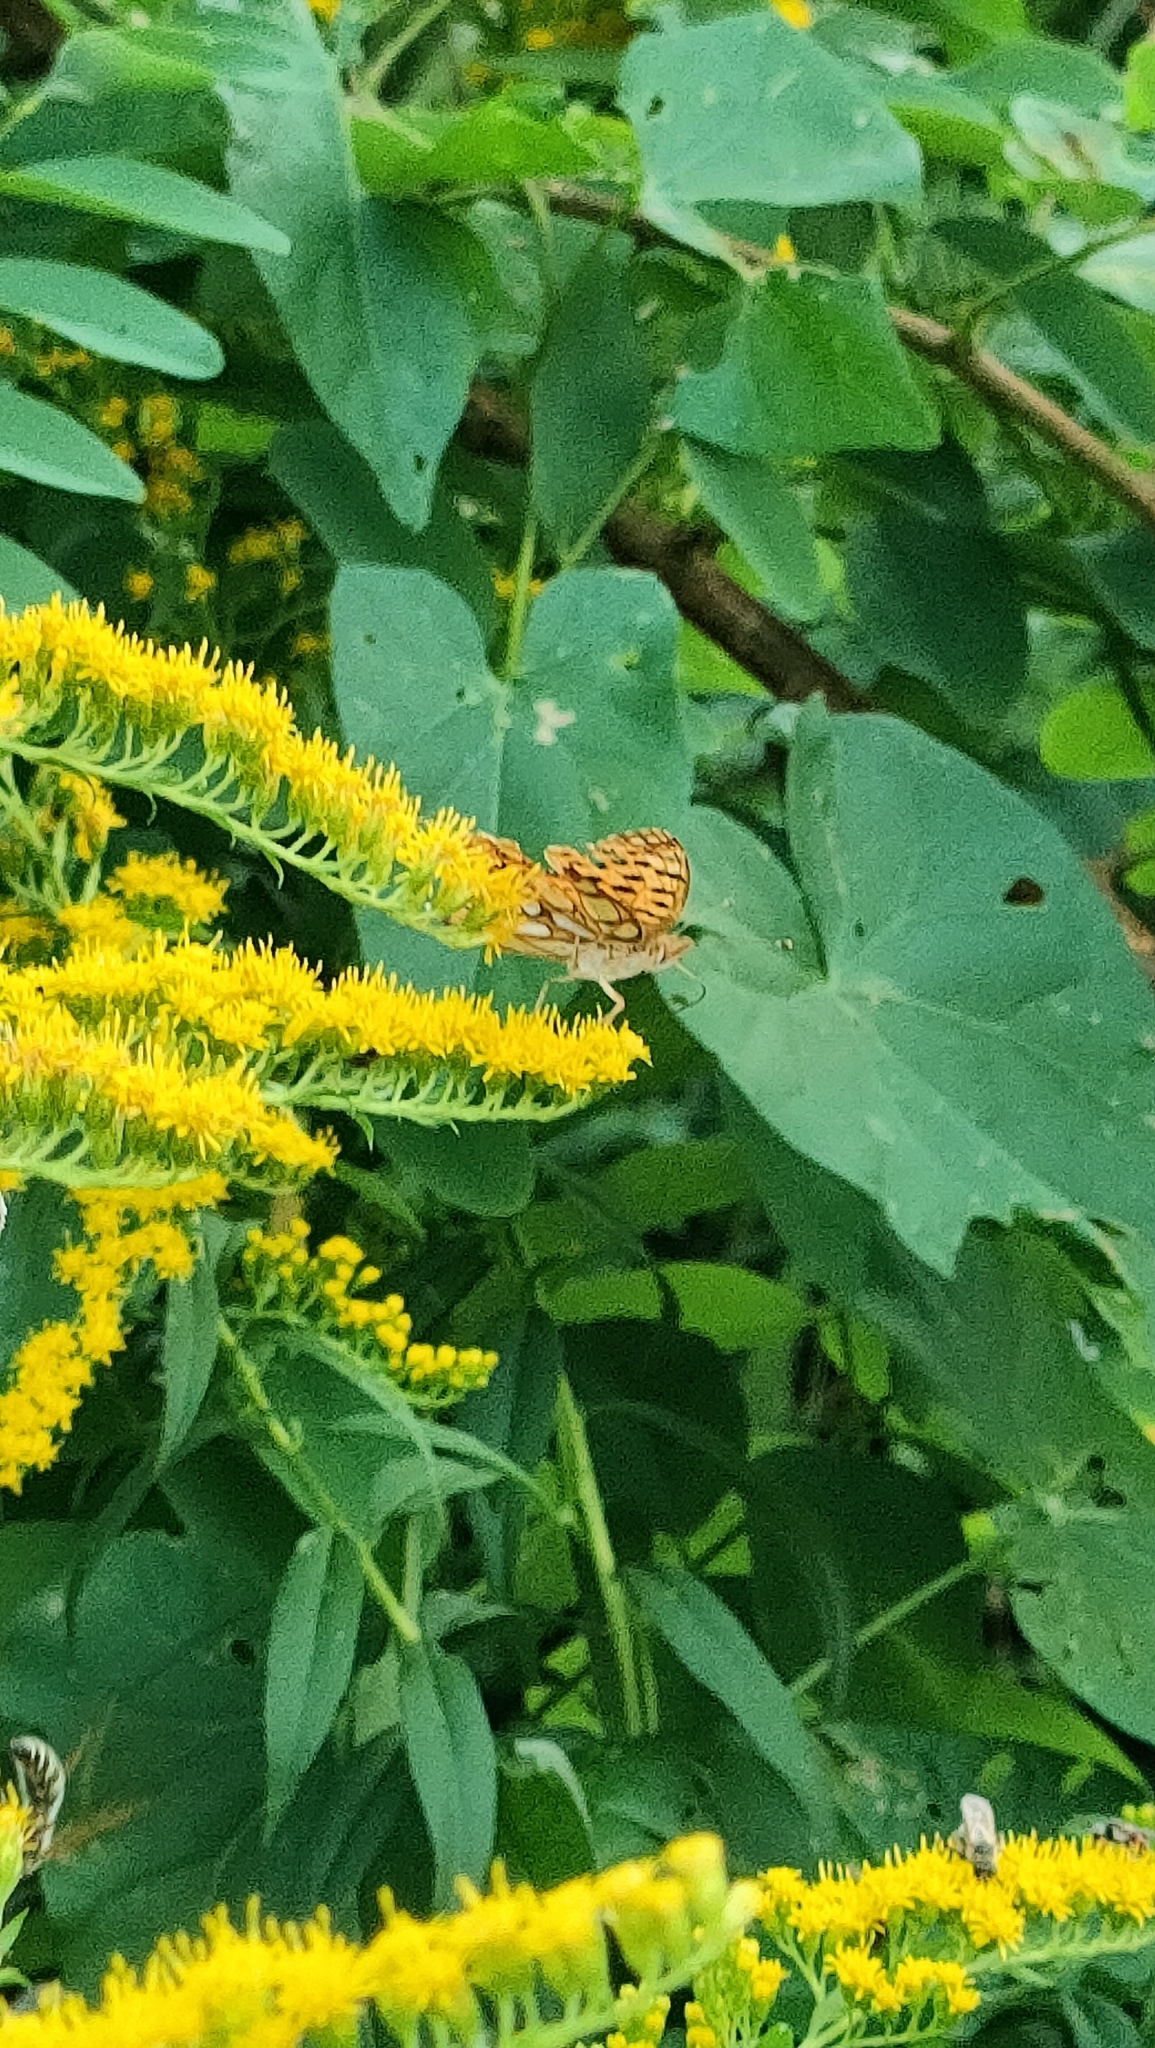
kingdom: Animalia
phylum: Arthropoda
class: Insecta
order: Lepidoptera
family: Nymphalidae
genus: Issoria
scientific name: Issoria lathonia
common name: Queen of spain fritillary
